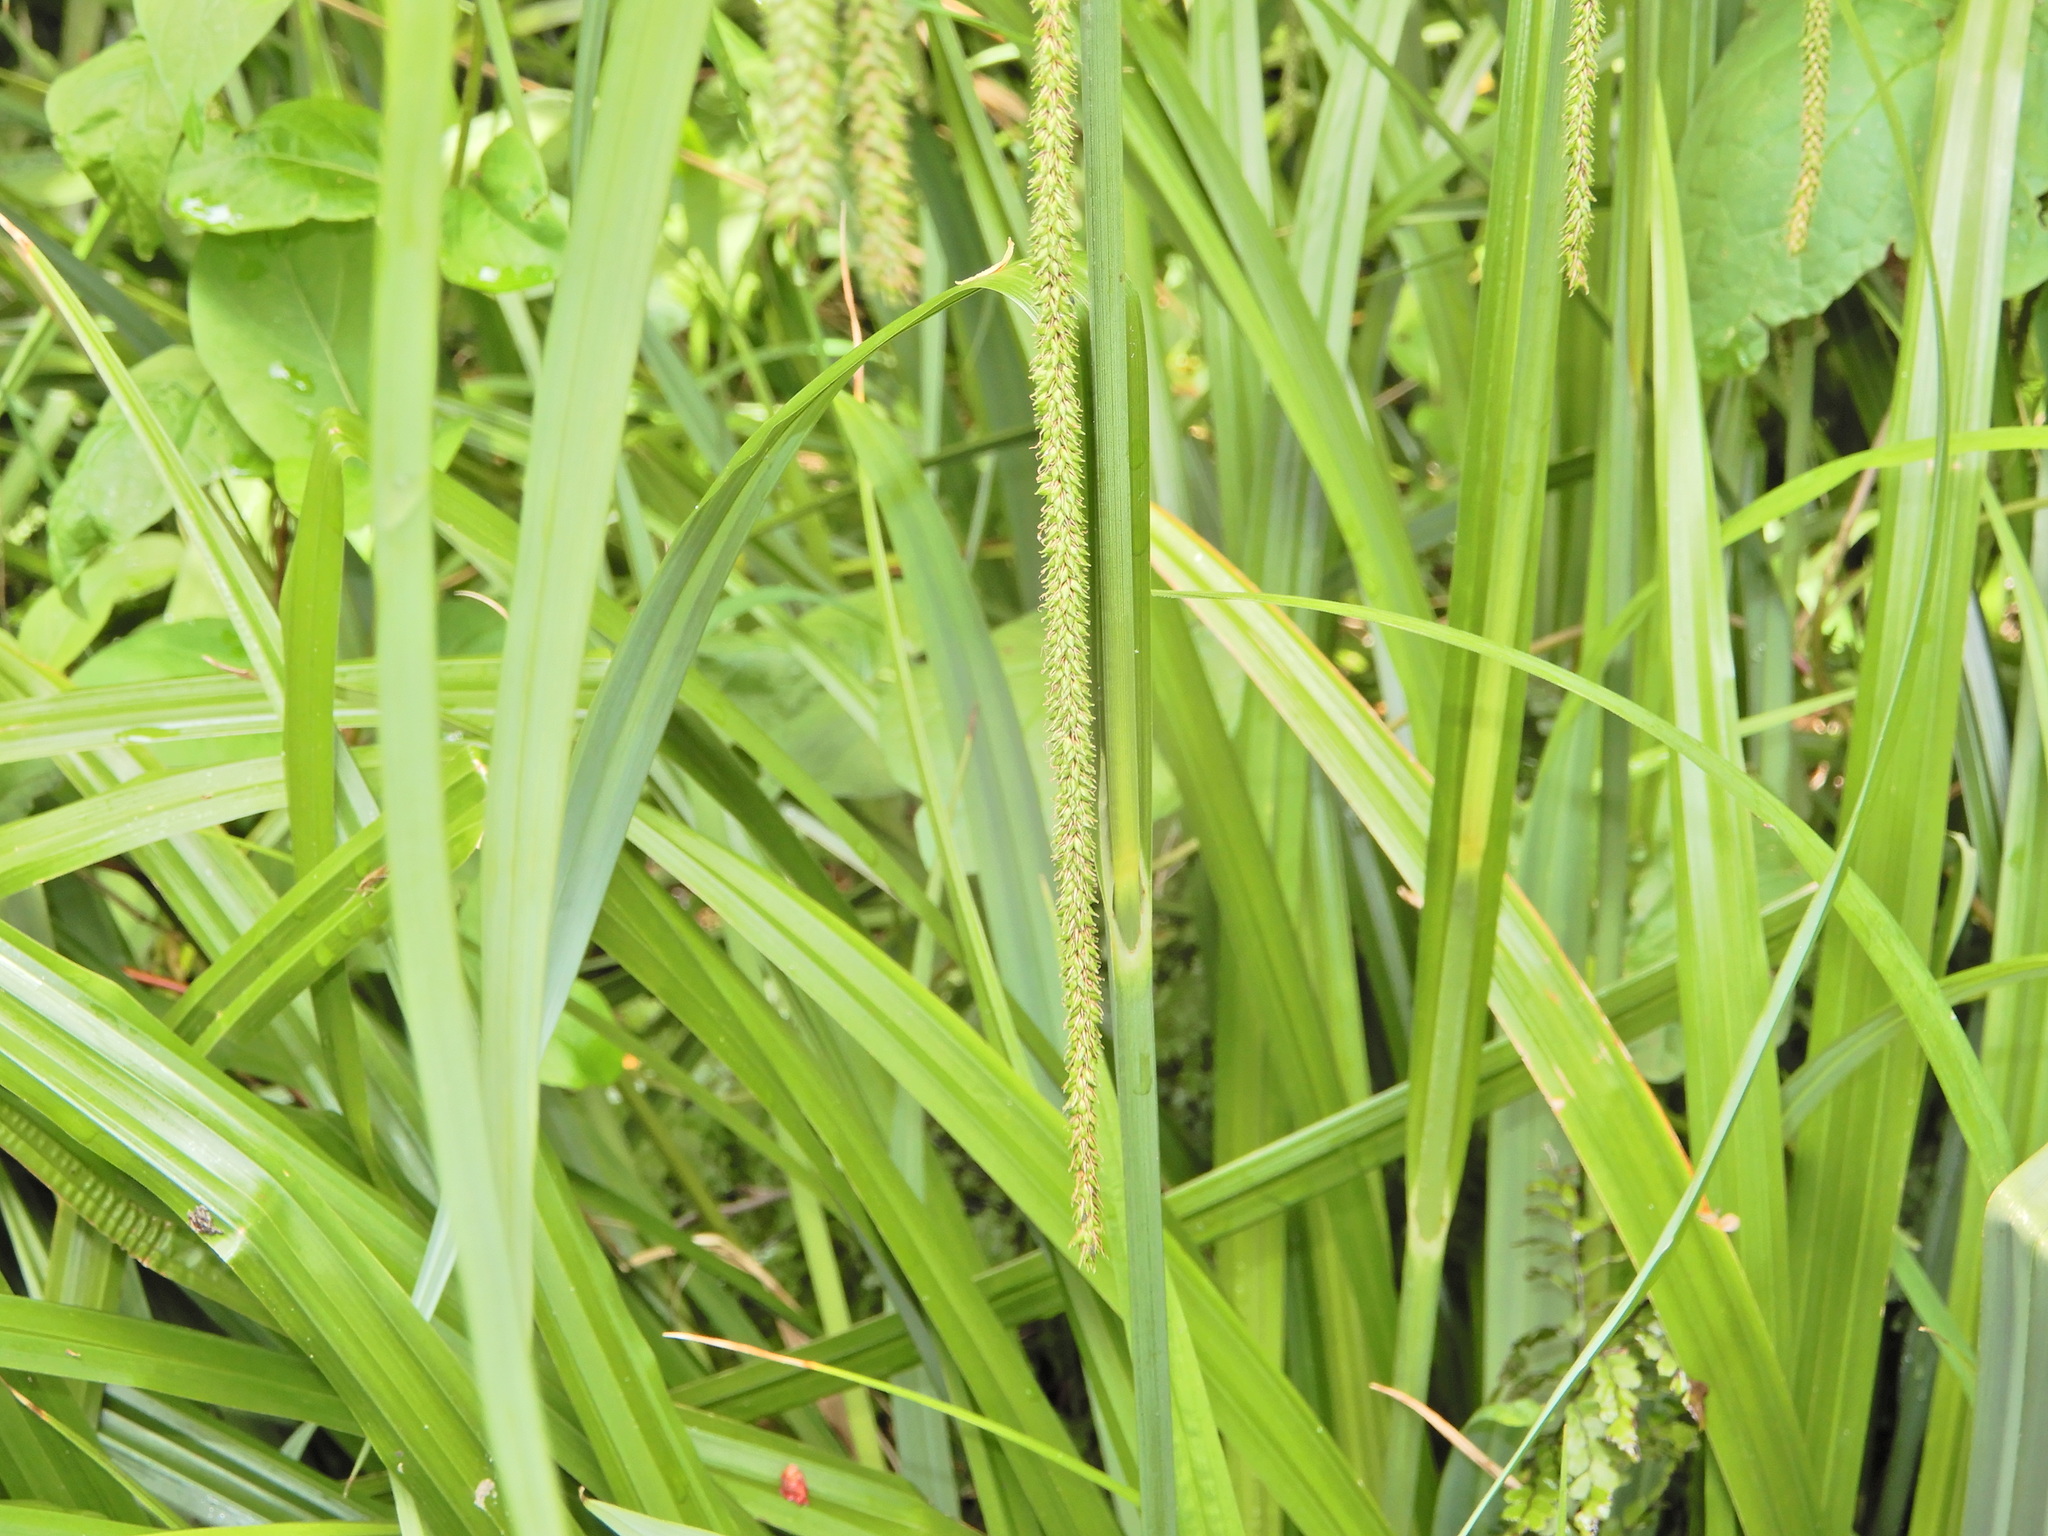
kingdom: Plantae
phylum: Tracheophyta
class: Liliopsida
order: Poales
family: Cyperaceae
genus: Carex
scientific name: Carex pendula
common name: Pendulous sedge
